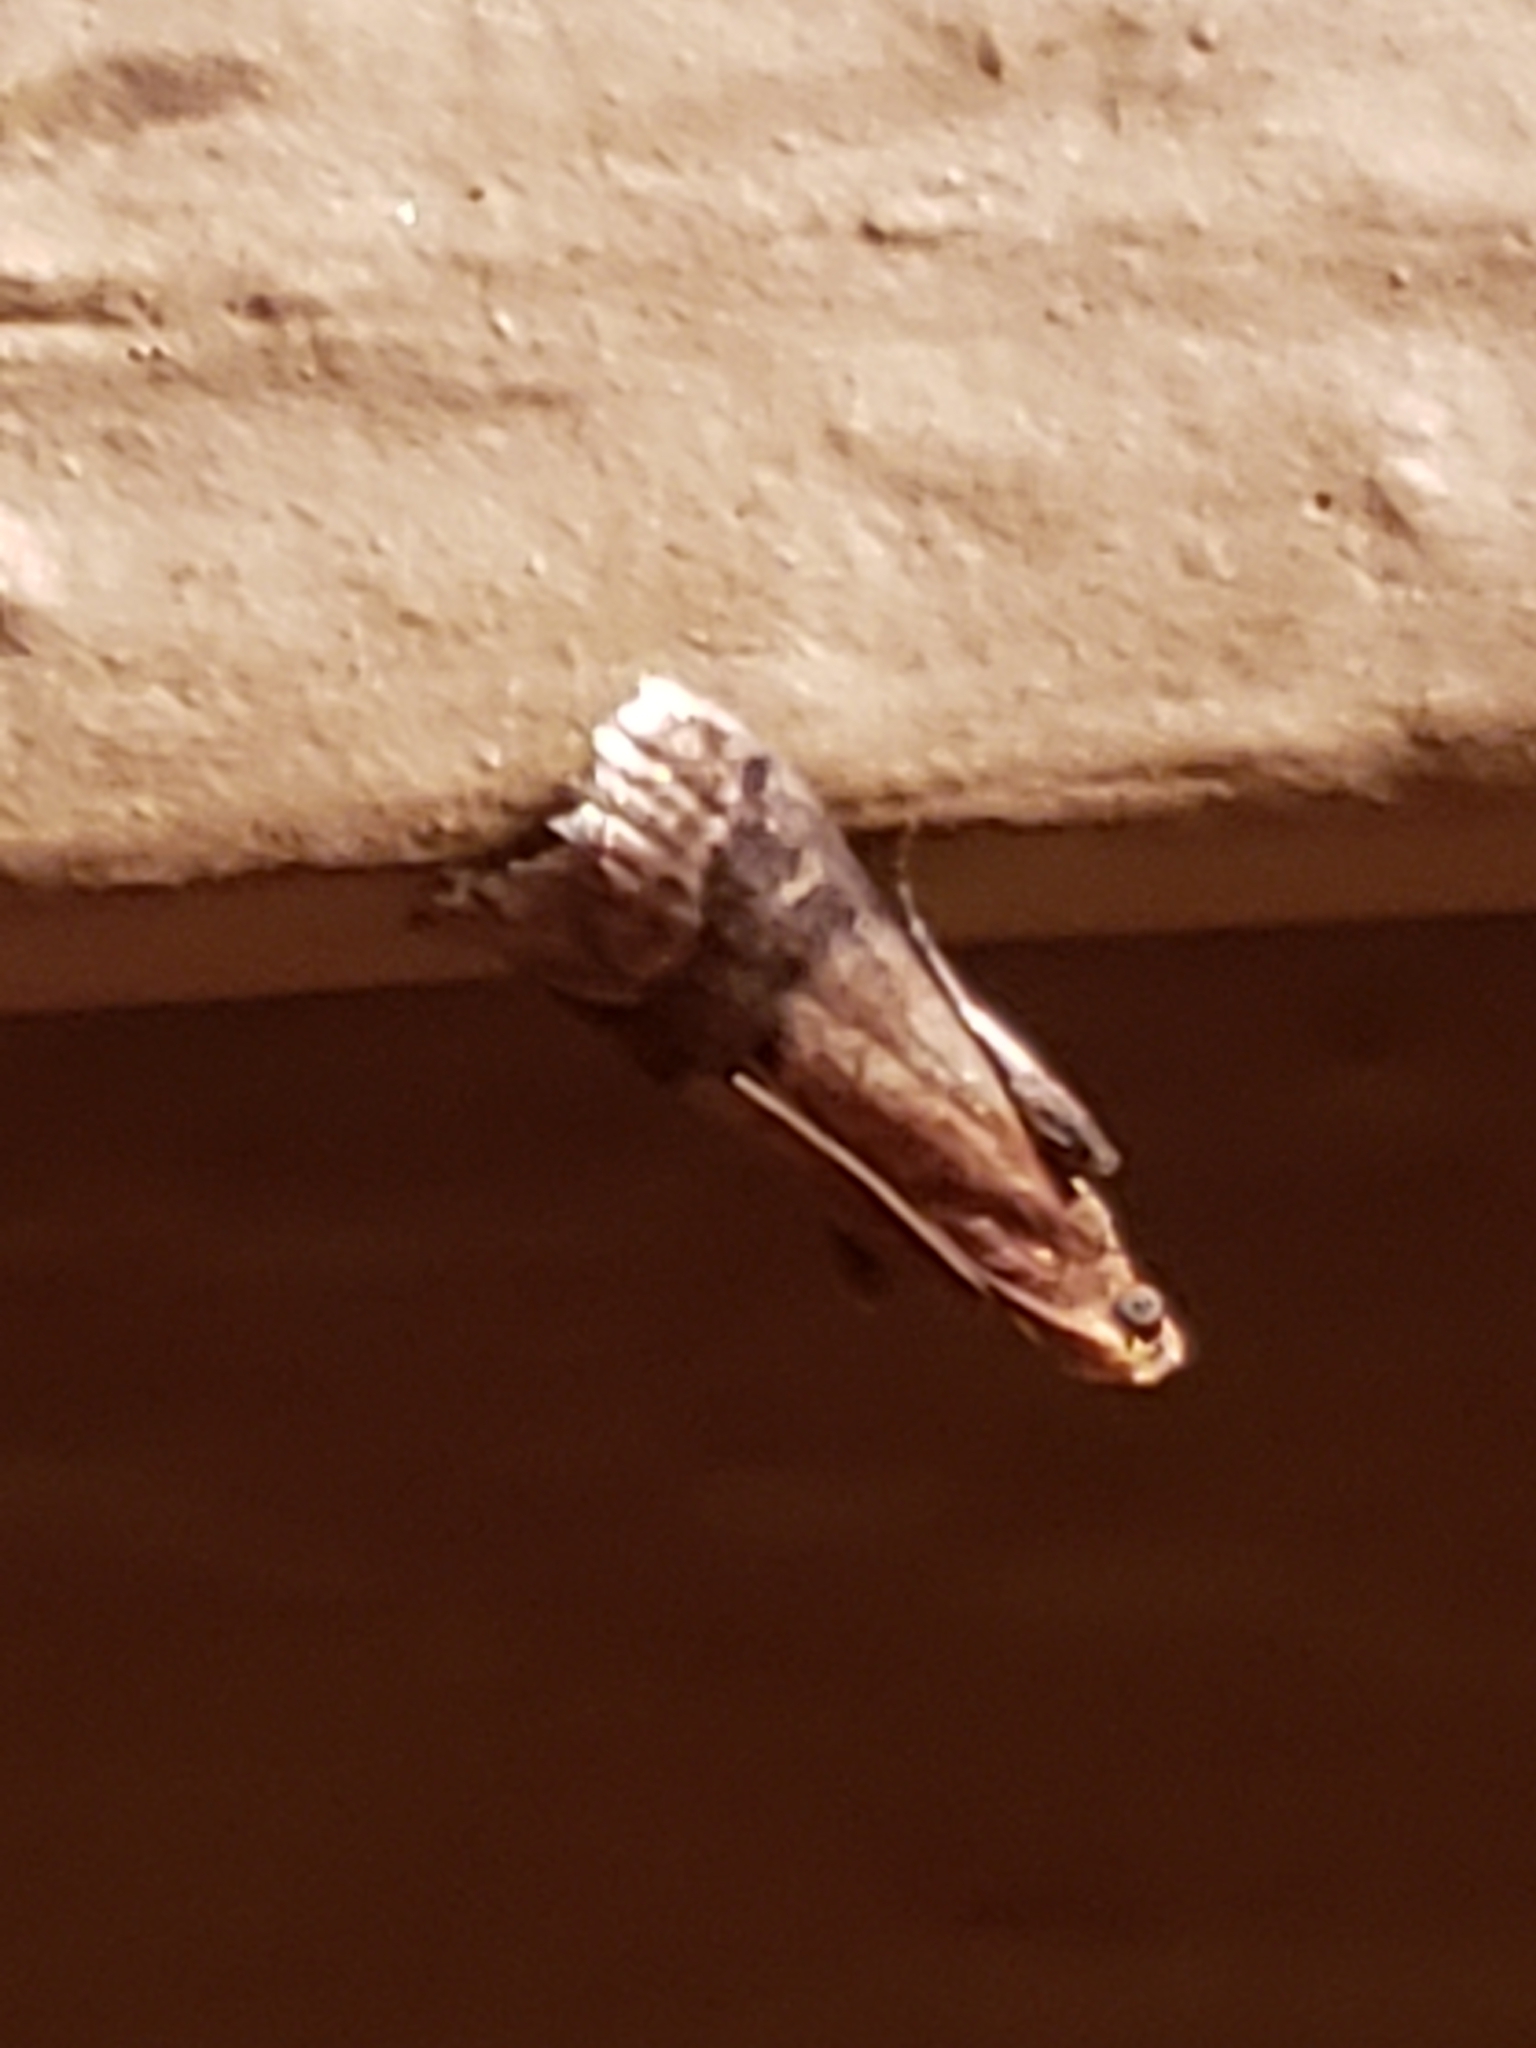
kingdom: Animalia
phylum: Arthropoda
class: Insecta
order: Lepidoptera
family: Pyralidae
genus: Eulogia
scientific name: Eulogia ochrifrontella
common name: Broad-banded eulogia moth
